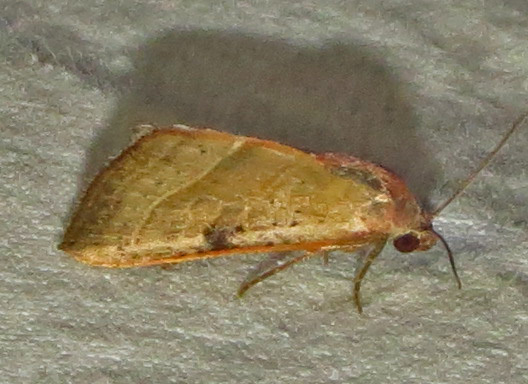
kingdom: Animalia
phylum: Arthropoda
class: Insecta
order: Lepidoptera
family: Noctuidae
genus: Galgula
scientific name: Galgula partita
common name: Wedgeling
